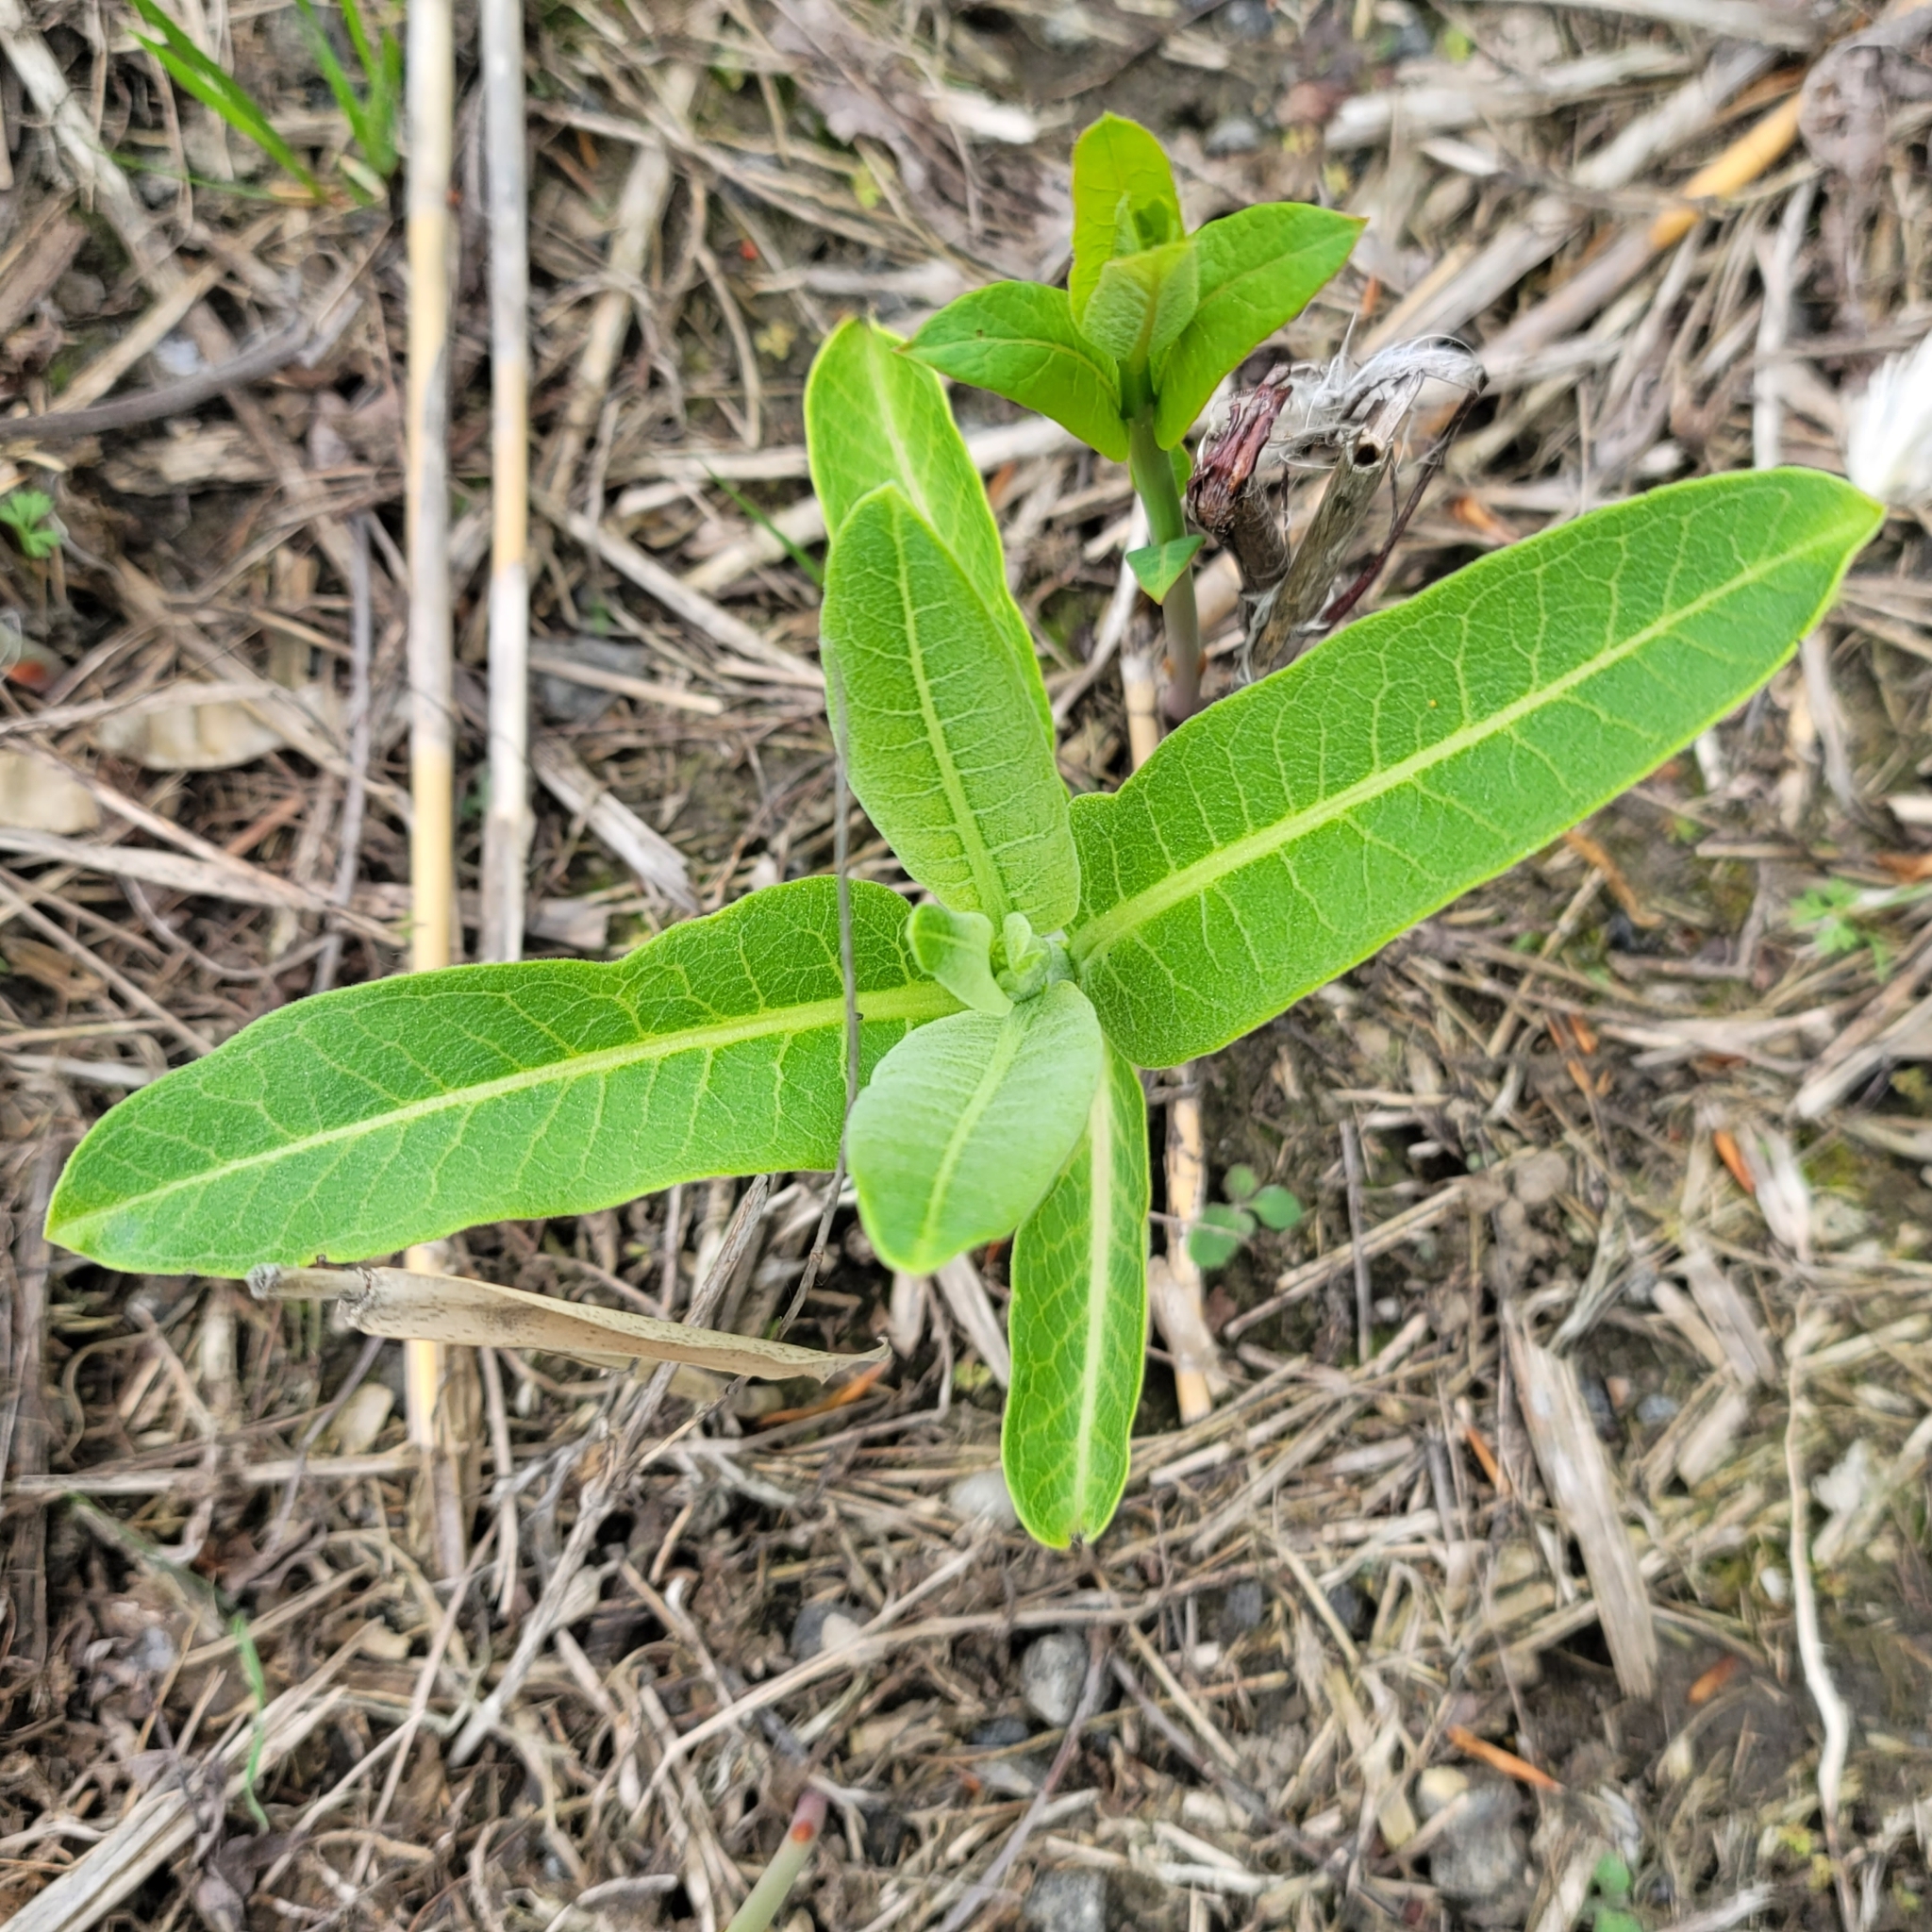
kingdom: Plantae
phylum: Tracheophyta
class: Magnoliopsida
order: Gentianales
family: Apocynaceae
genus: Asclepias
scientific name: Asclepias syriaca
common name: Common milkweed
